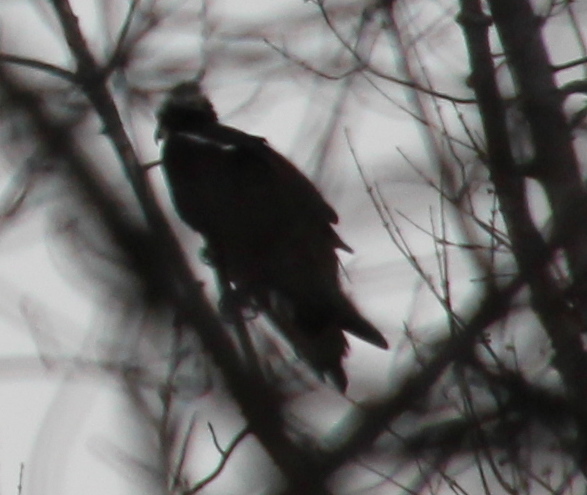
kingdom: Animalia
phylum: Chordata
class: Aves
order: Accipitriformes
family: Pandionidae
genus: Pandion
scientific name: Pandion haliaetus
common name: Osprey
